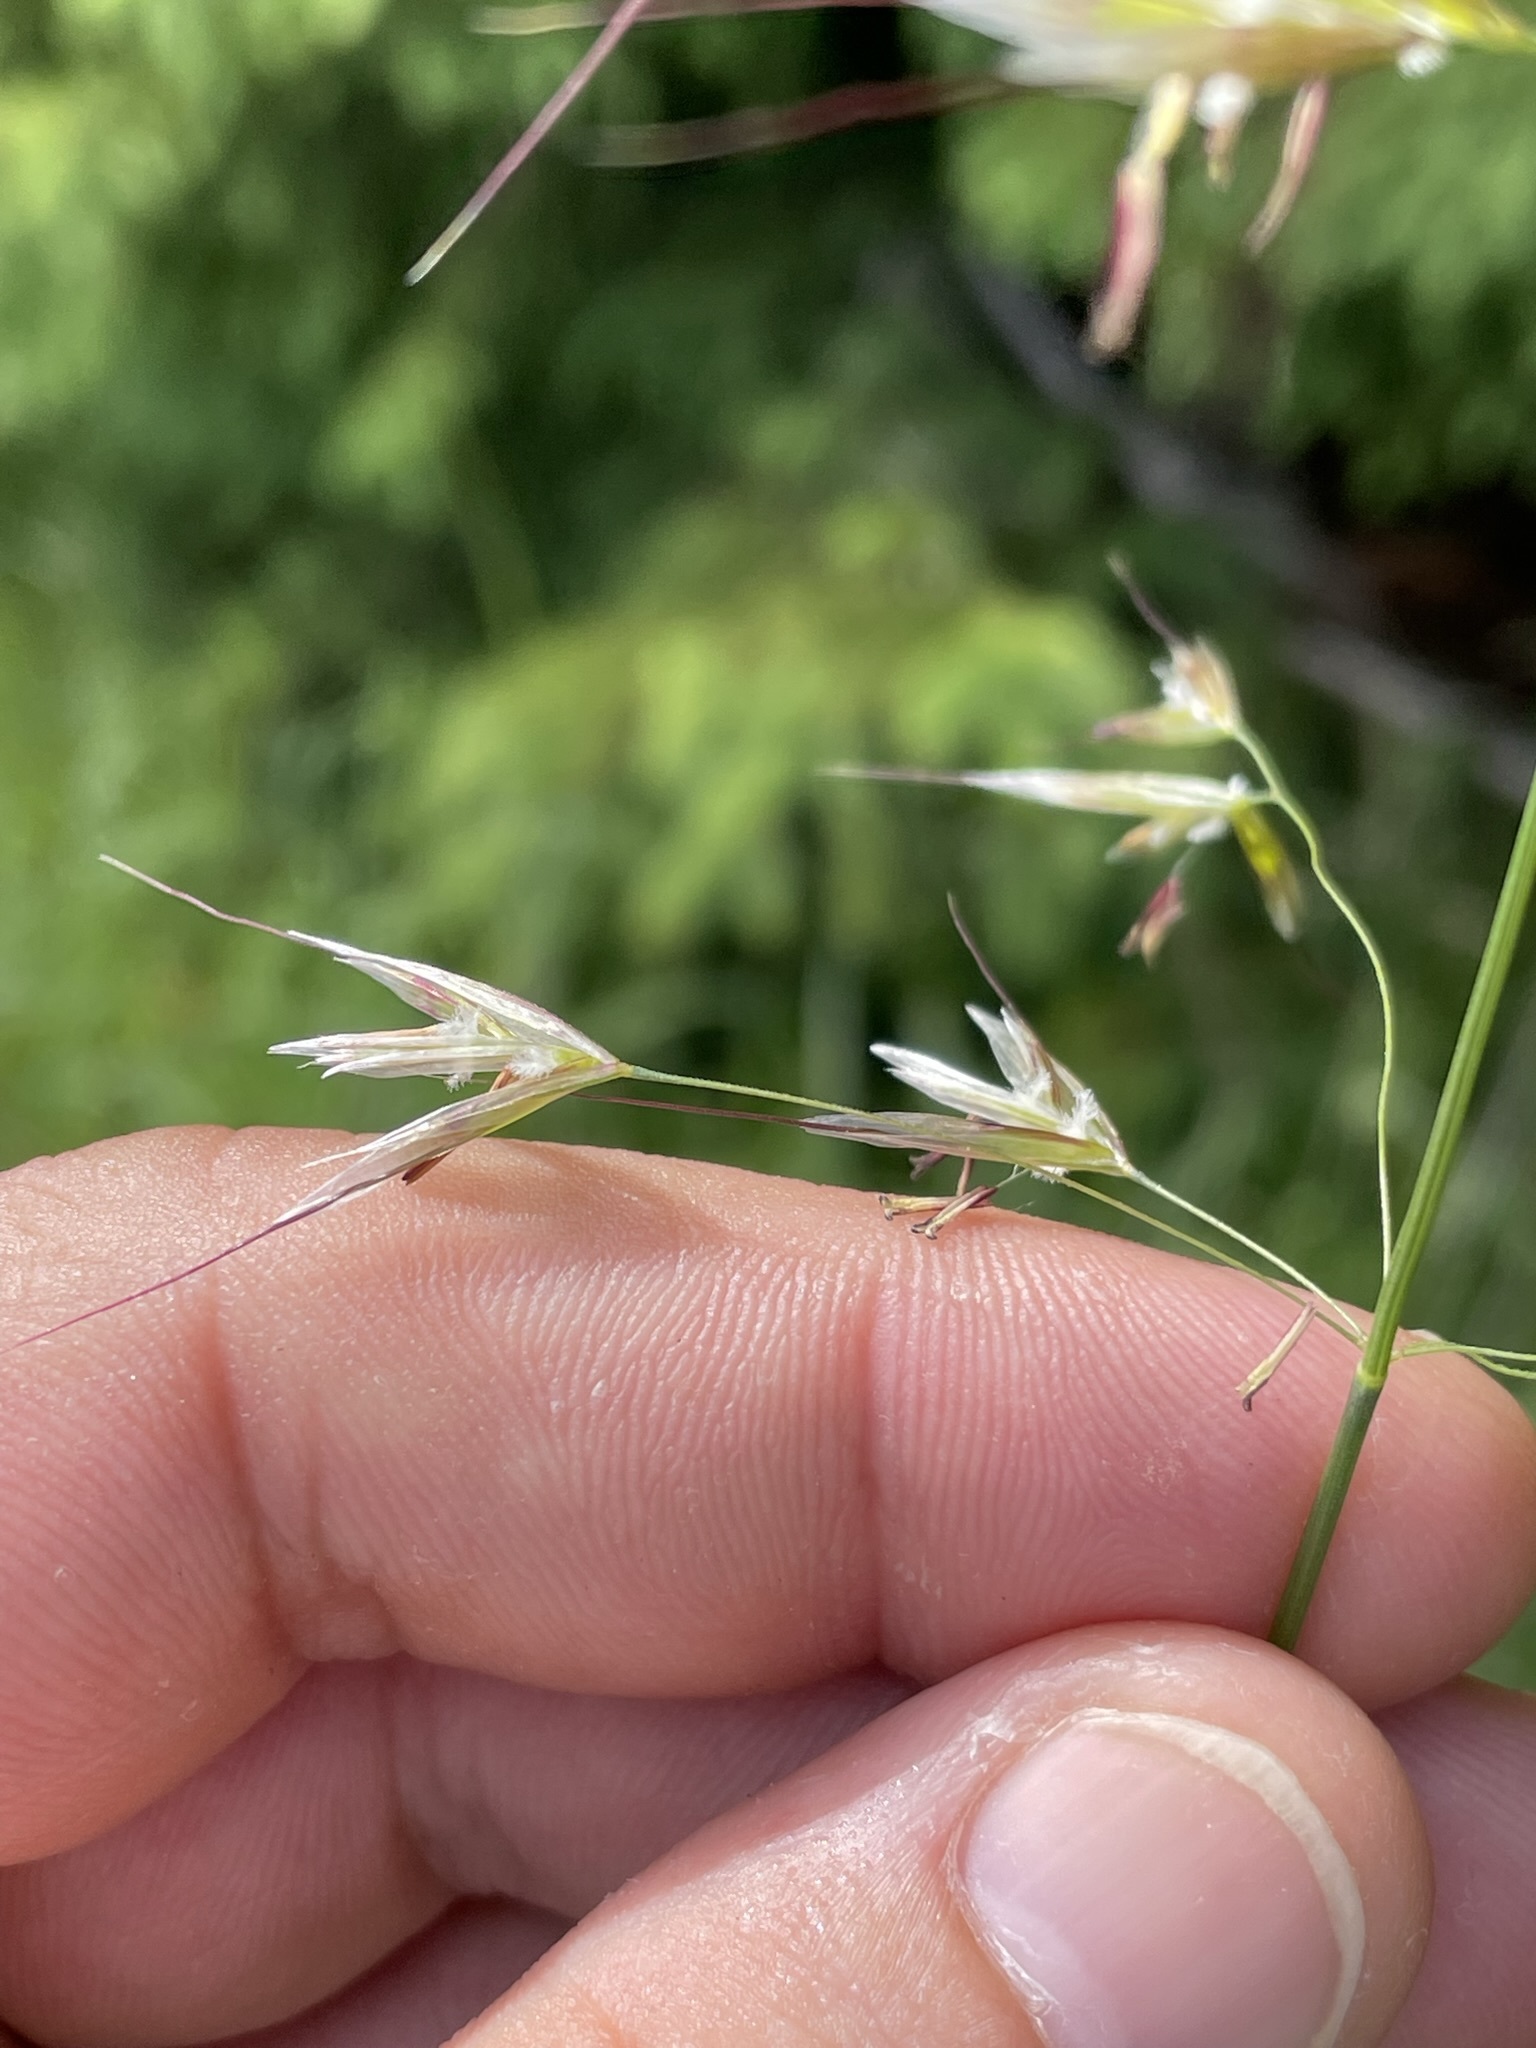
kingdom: Plantae
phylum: Tracheophyta
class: Liliopsida
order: Poales
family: Poaceae
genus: Avenula
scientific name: Avenula pubescens
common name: Downy alpine oatgrass
